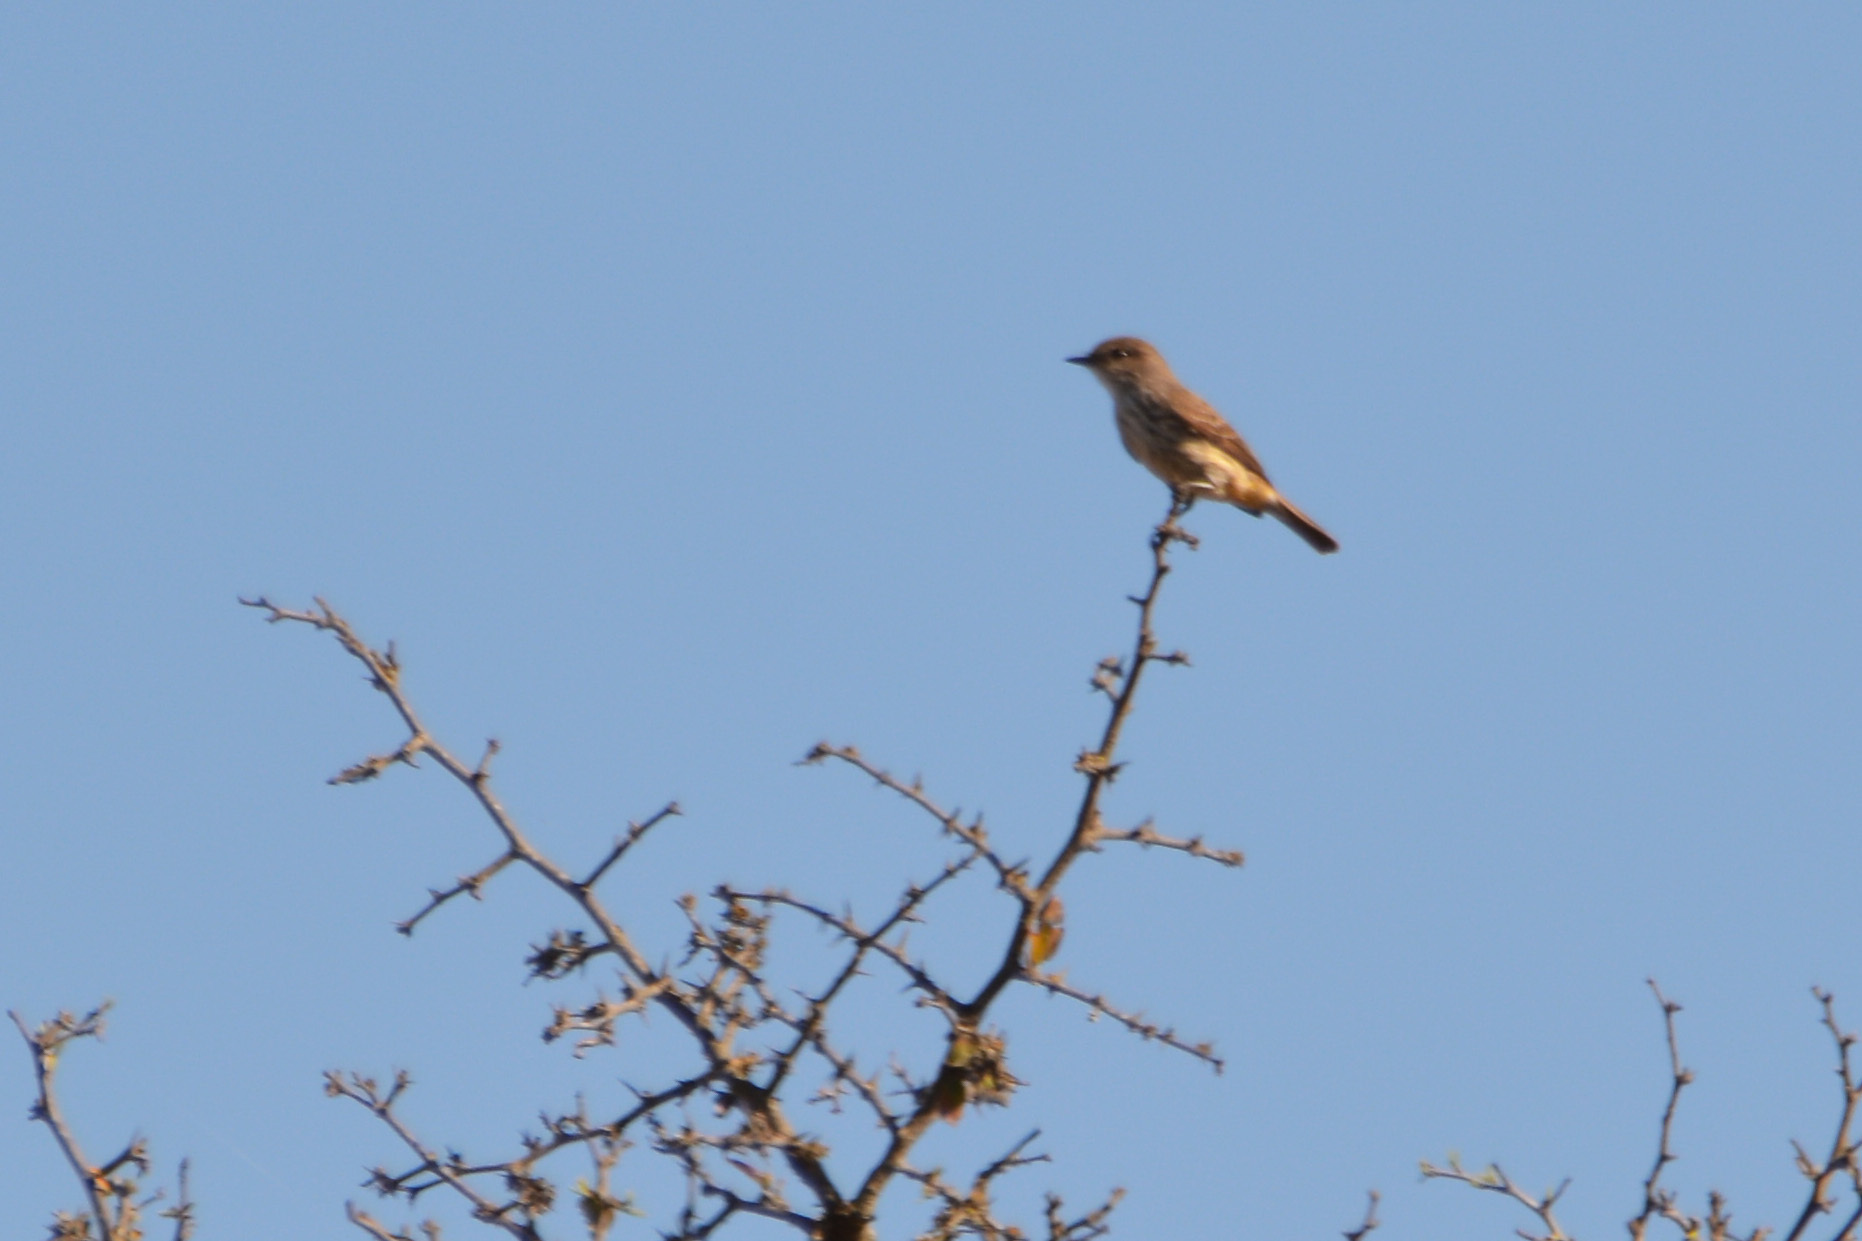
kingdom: Animalia
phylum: Chordata
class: Aves
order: Passeriformes
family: Tyrannidae
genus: Pyrocephalus
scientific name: Pyrocephalus rubinus
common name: Vermilion flycatcher
